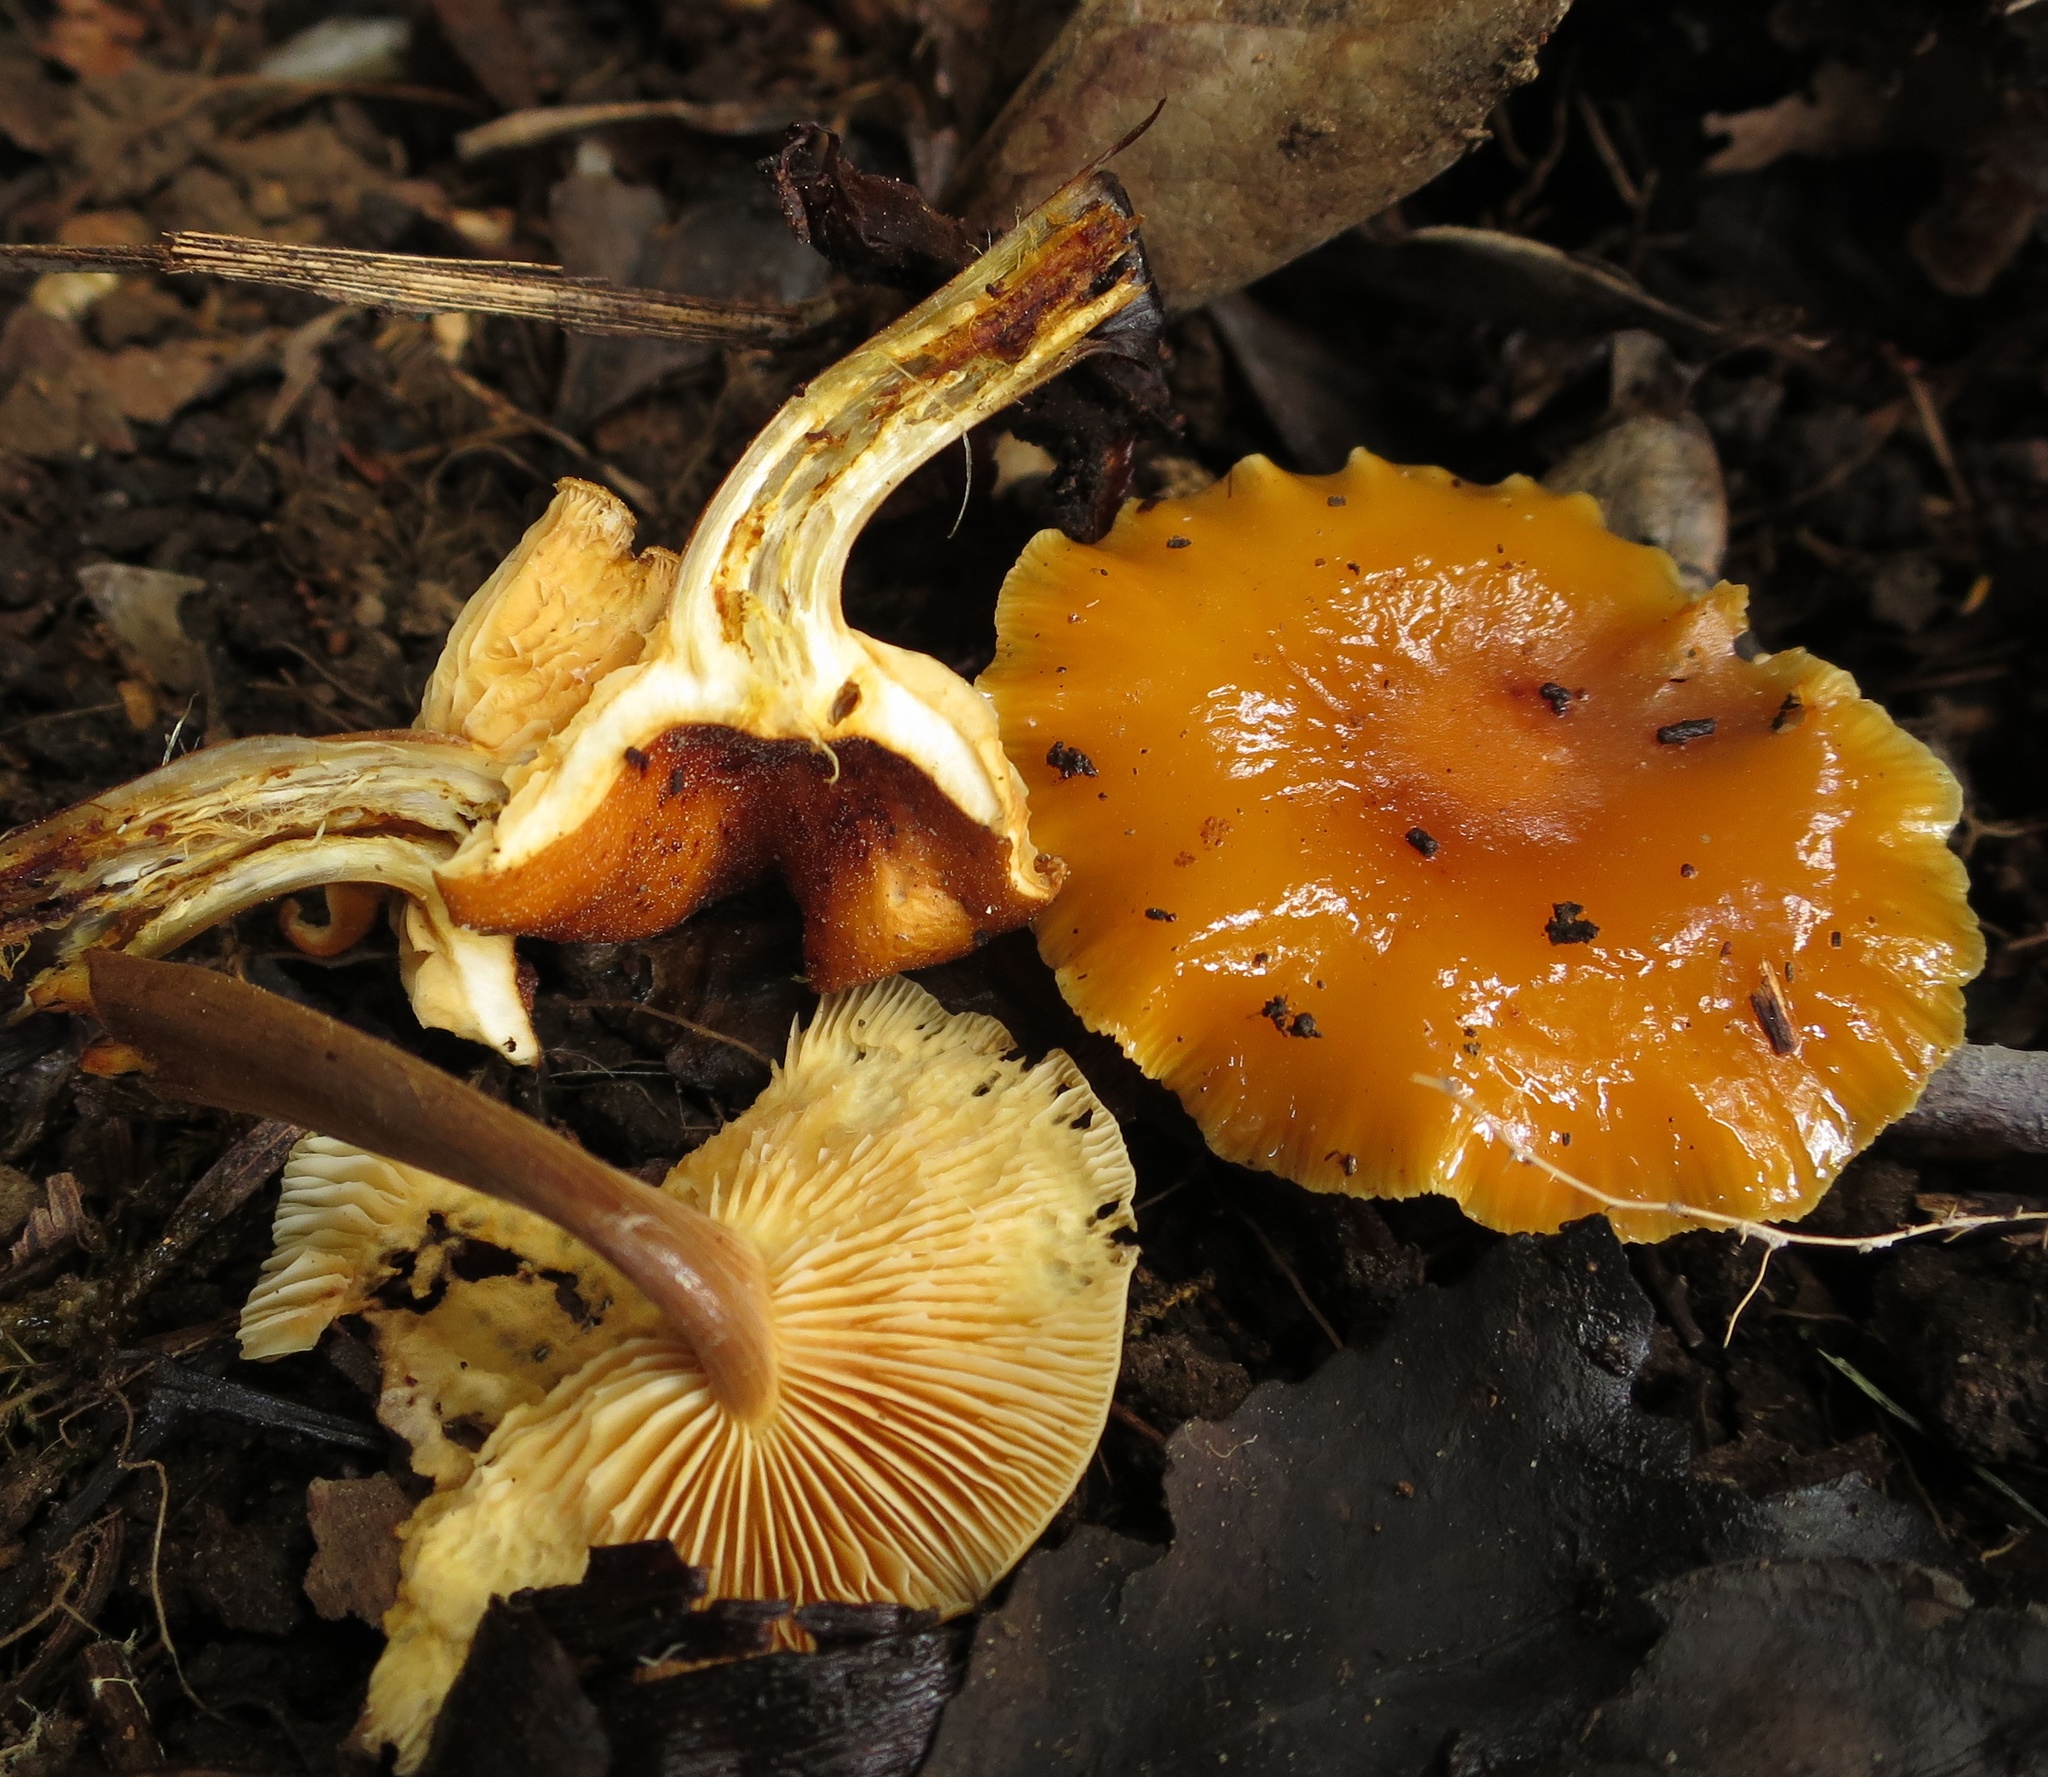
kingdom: Fungi
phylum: Basidiomycota
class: Agaricomycetes
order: Agaricales
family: Physalacriaceae
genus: Flammulina
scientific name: Flammulina velutipes
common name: Velvet shank
